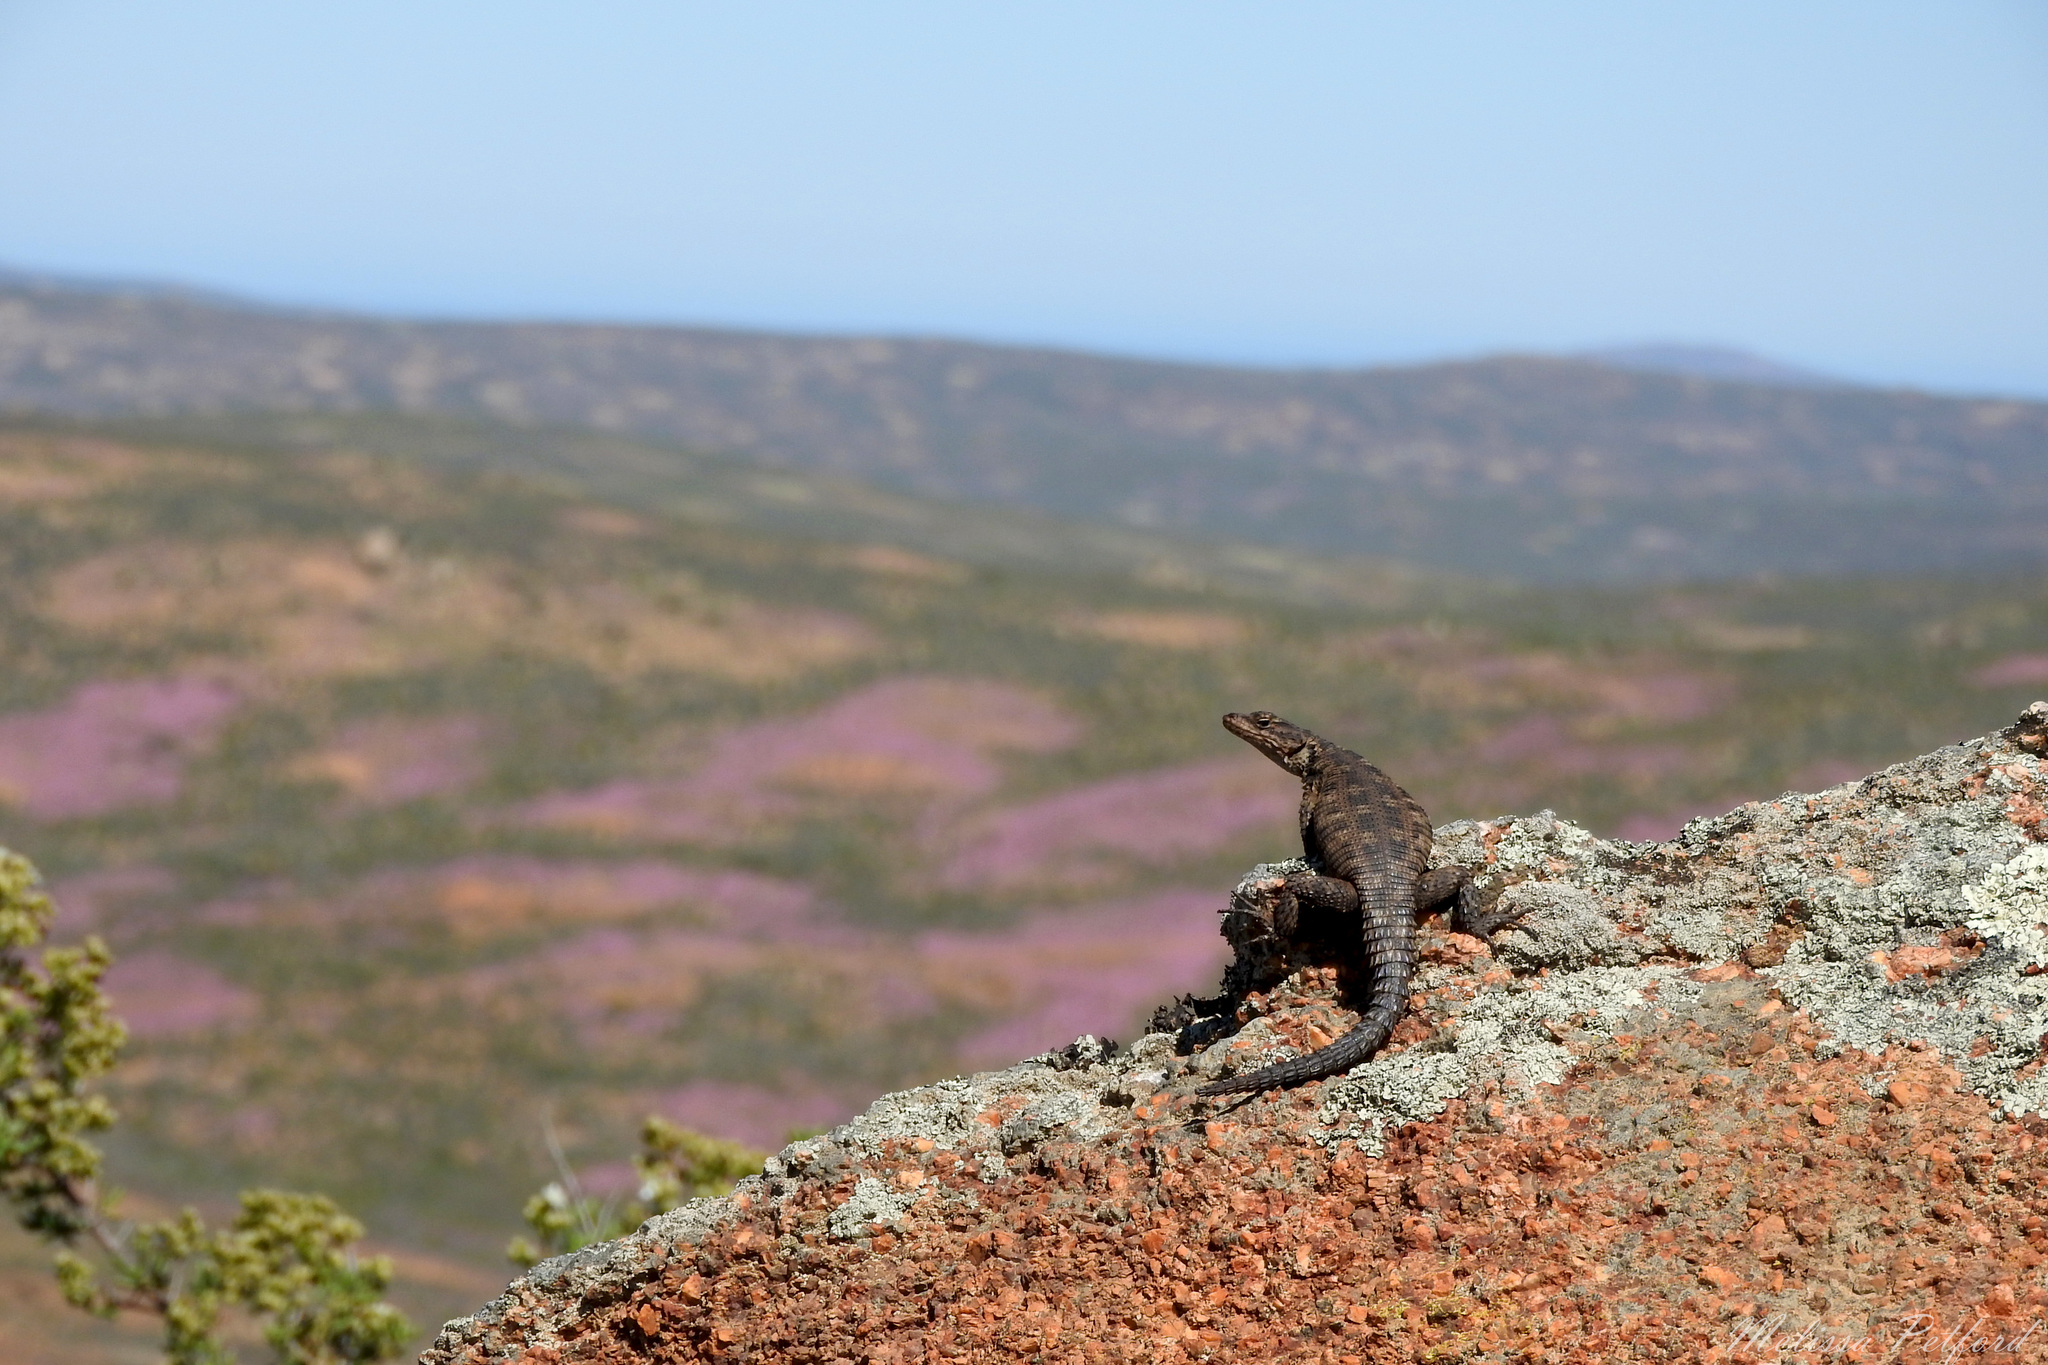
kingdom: Animalia
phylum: Chordata
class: Squamata
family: Cordylidae
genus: Karusasaurus
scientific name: Karusasaurus polyzonus
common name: Karoo girdled lizard
